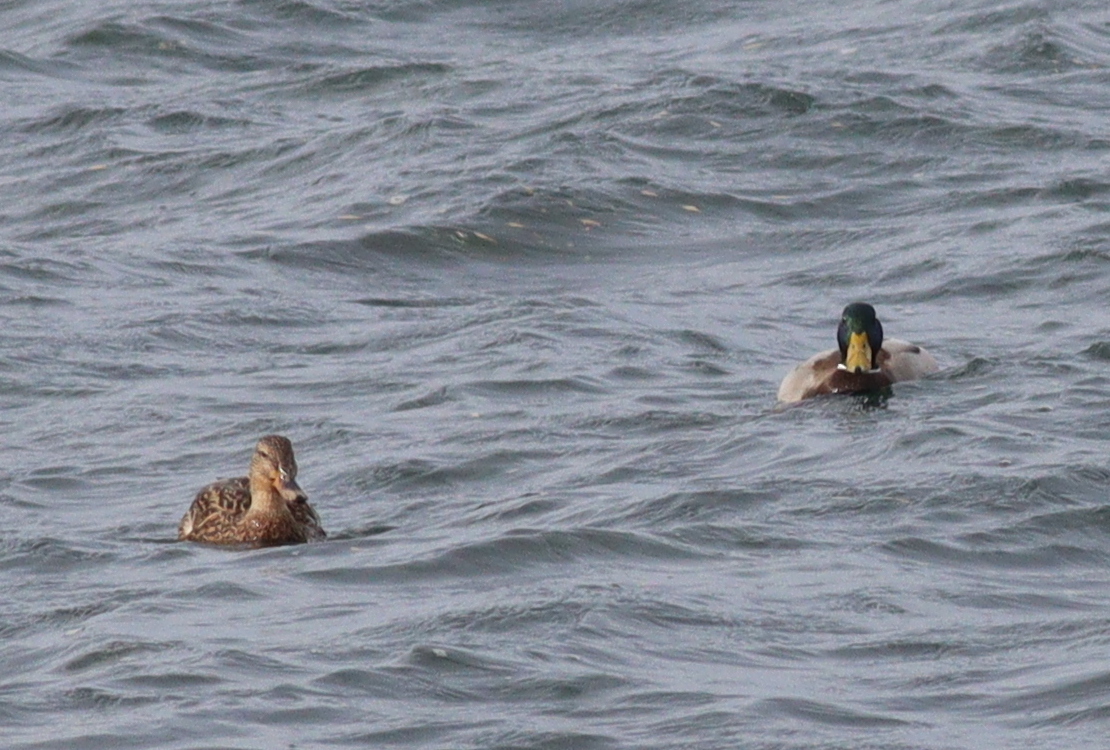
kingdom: Animalia
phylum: Chordata
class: Aves
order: Anseriformes
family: Anatidae
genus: Anas
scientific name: Anas platyrhynchos
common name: Mallard
